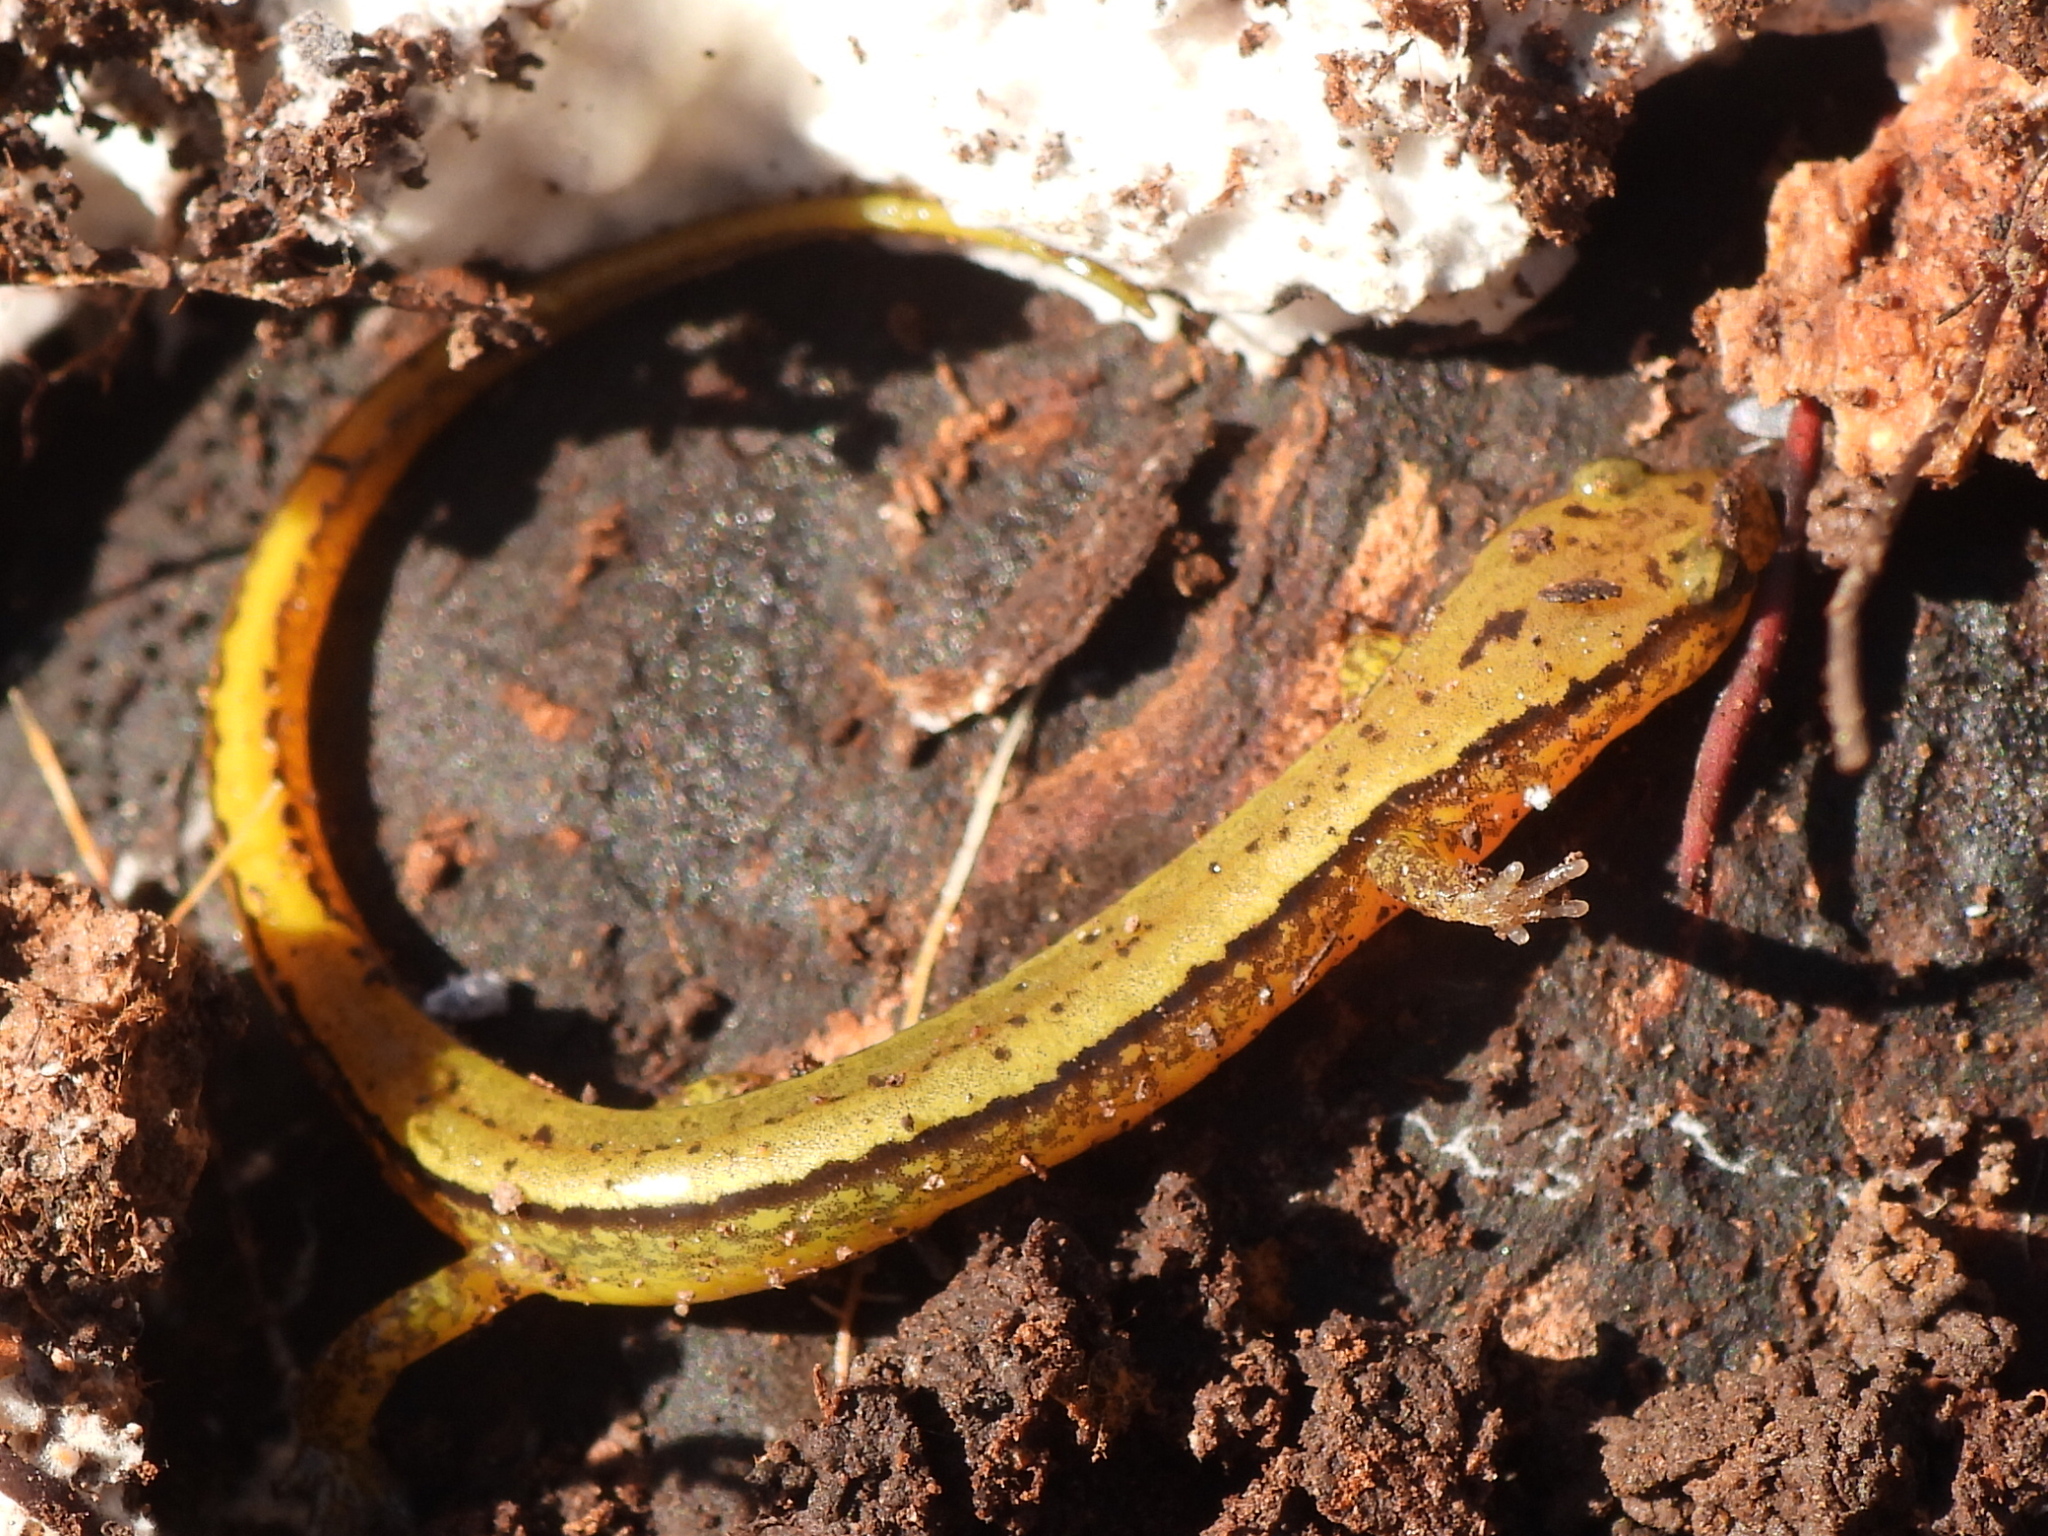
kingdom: Animalia
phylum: Chordata
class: Amphibia
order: Caudata
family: Plethodontidae
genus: Eurycea
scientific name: Eurycea cirrigera
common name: Southern two-lined salamander
